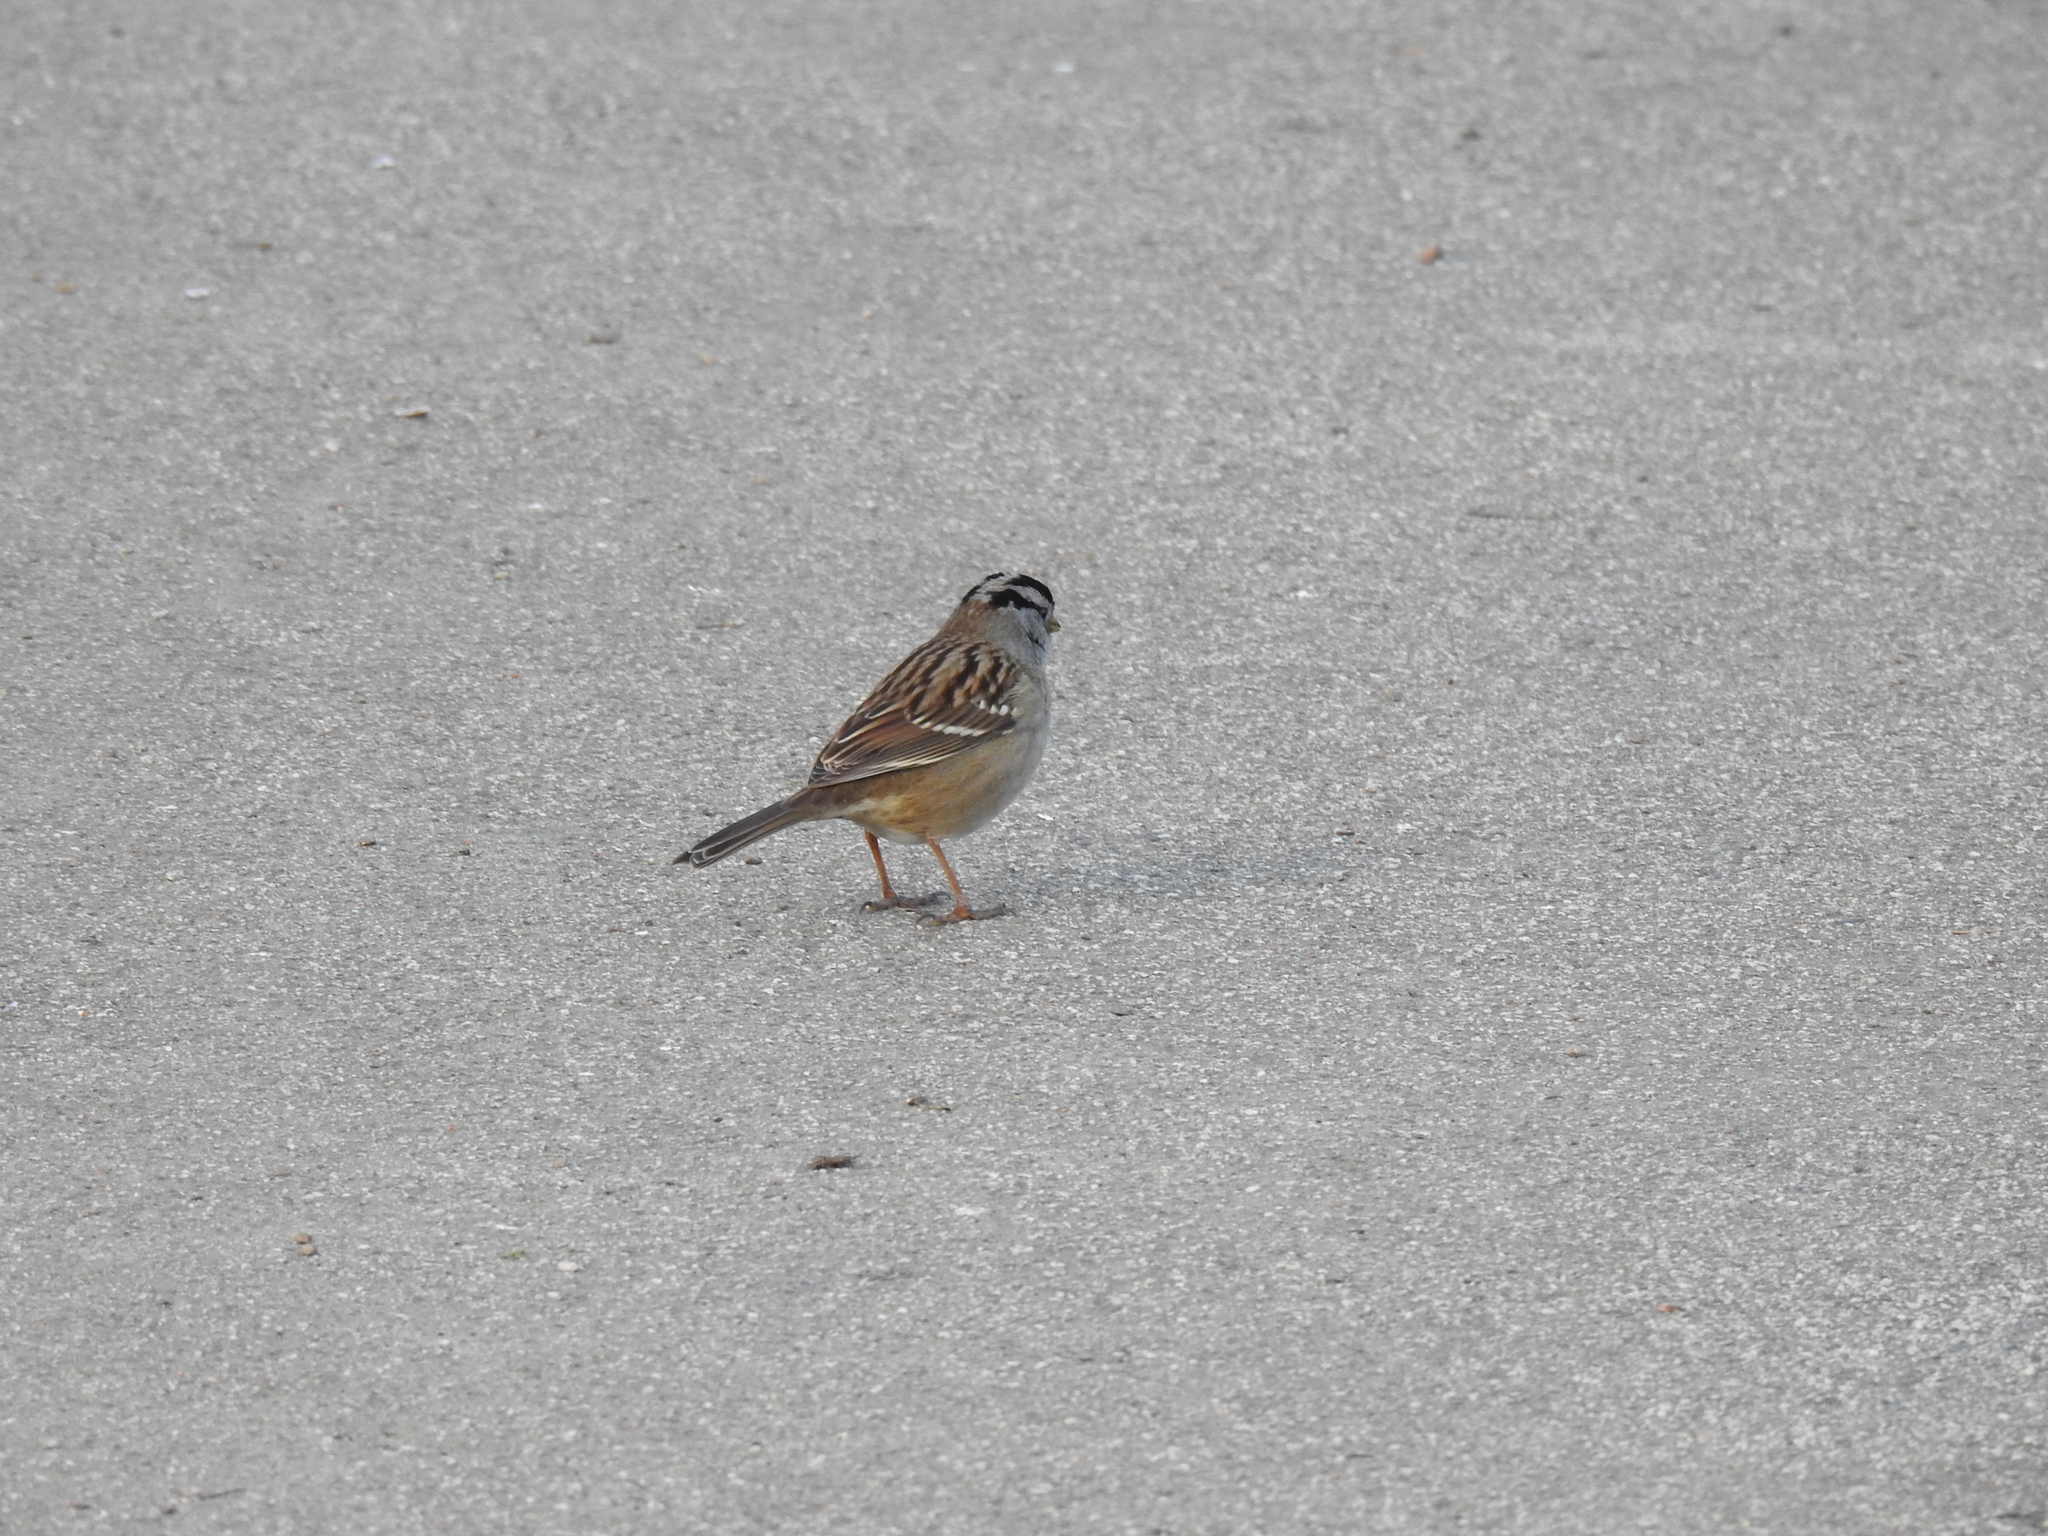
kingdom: Animalia
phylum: Chordata
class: Aves
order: Passeriformes
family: Passerellidae
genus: Zonotrichia
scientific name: Zonotrichia leucophrys
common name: White-crowned sparrow
